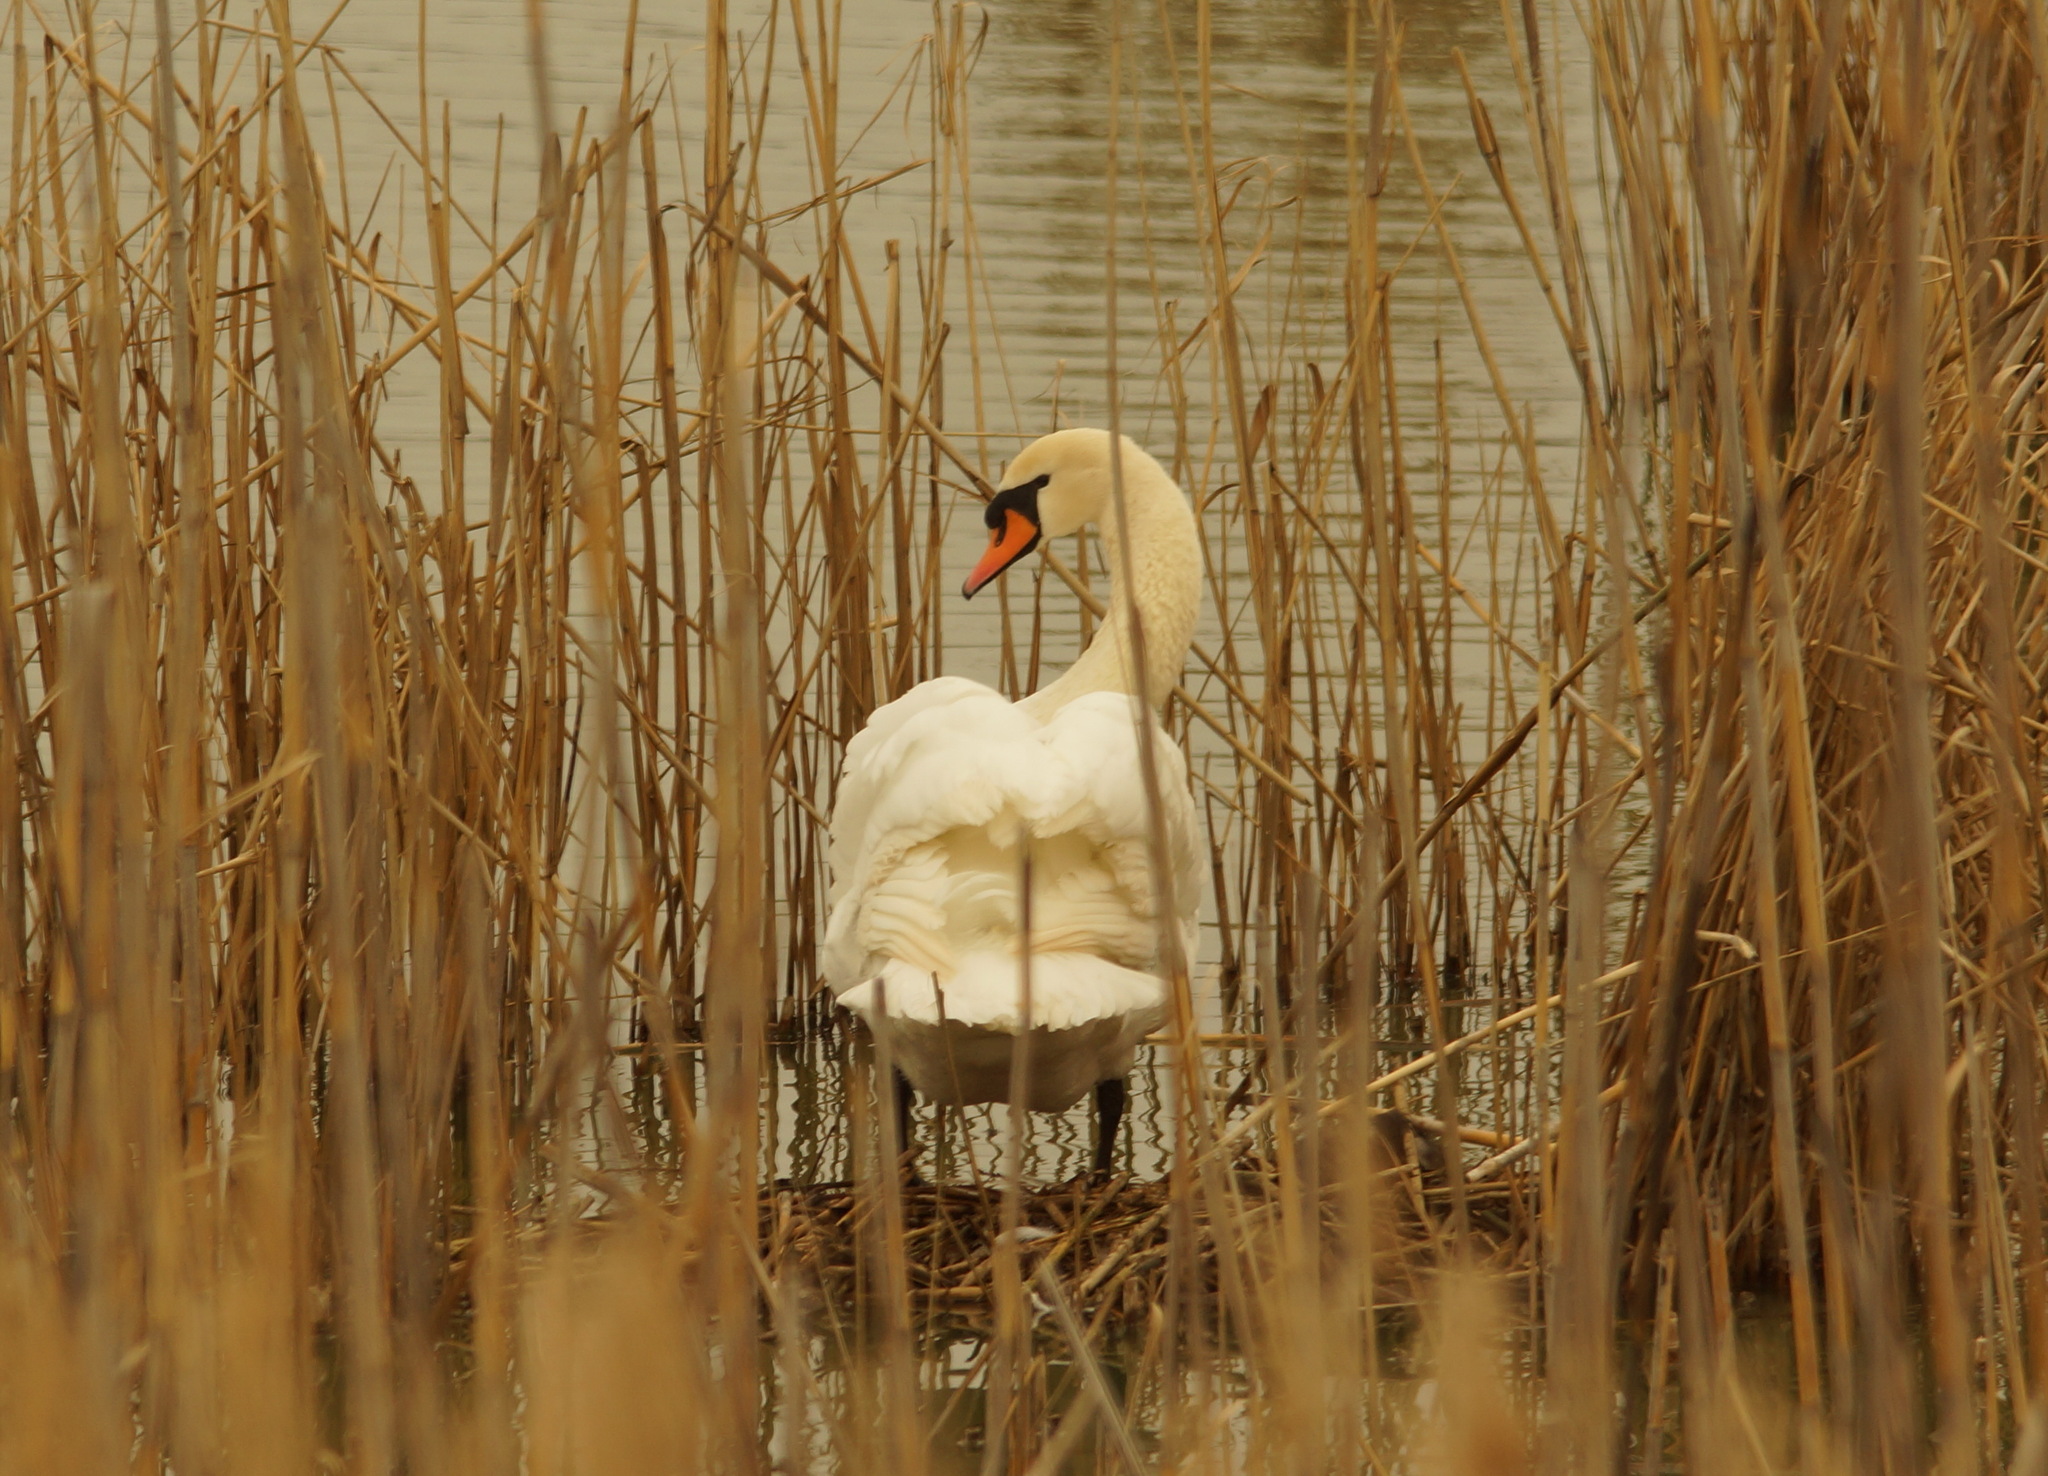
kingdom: Animalia
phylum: Chordata
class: Aves
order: Anseriformes
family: Anatidae
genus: Cygnus
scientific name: Cygnus olor
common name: Mute swan
